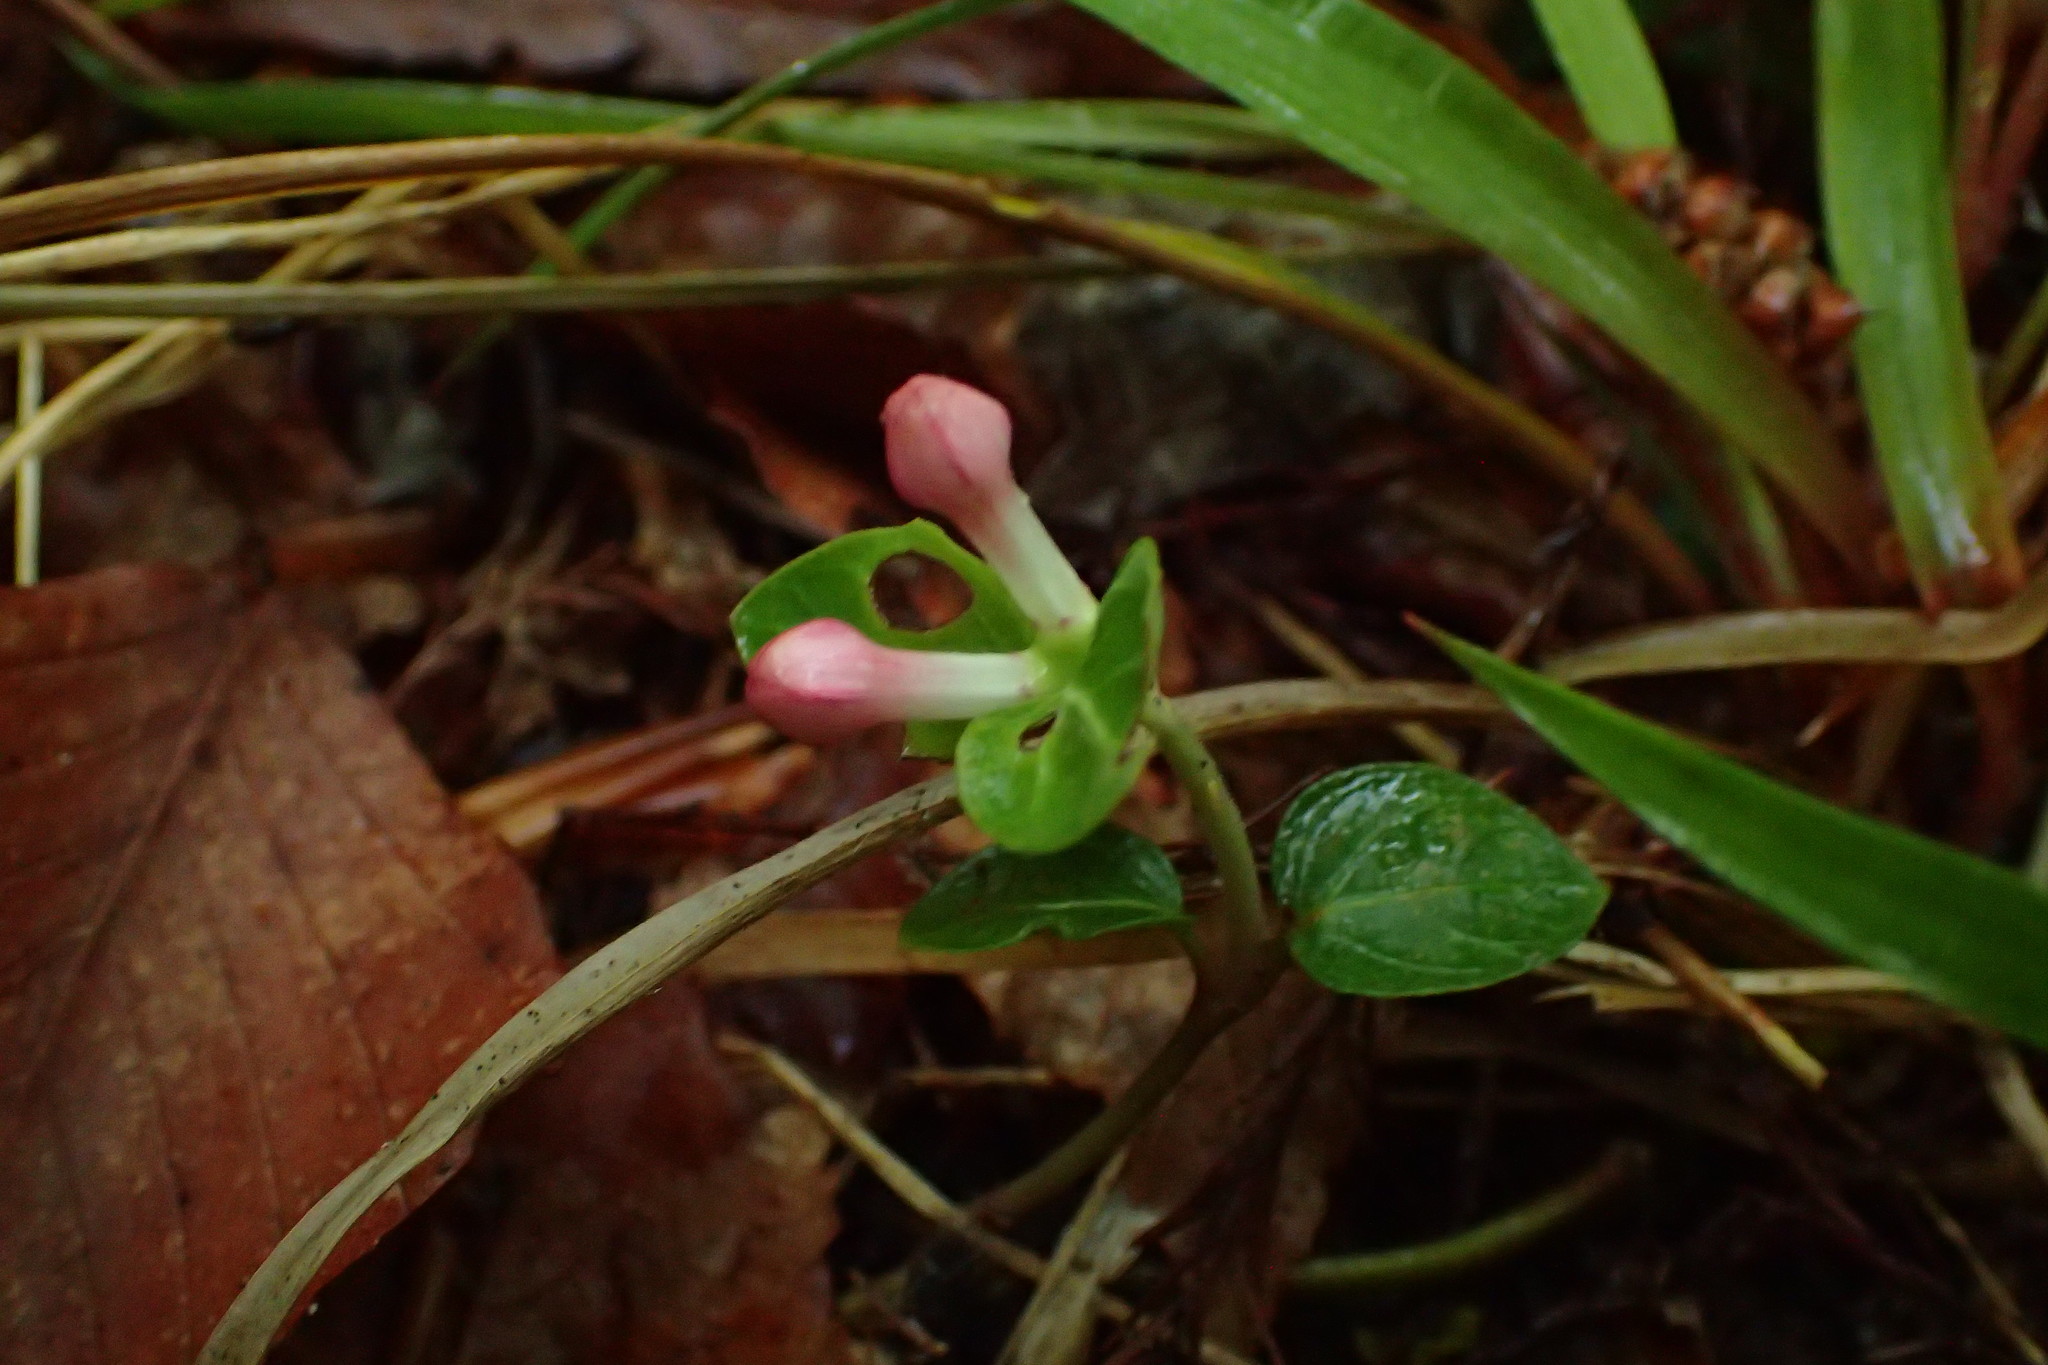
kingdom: Plantae
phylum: Tracheophyta
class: Magnoliopsida
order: Gentianales
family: Rubiaceae
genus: Mitchella
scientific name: Mitchella repens
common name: Partridge-berry
